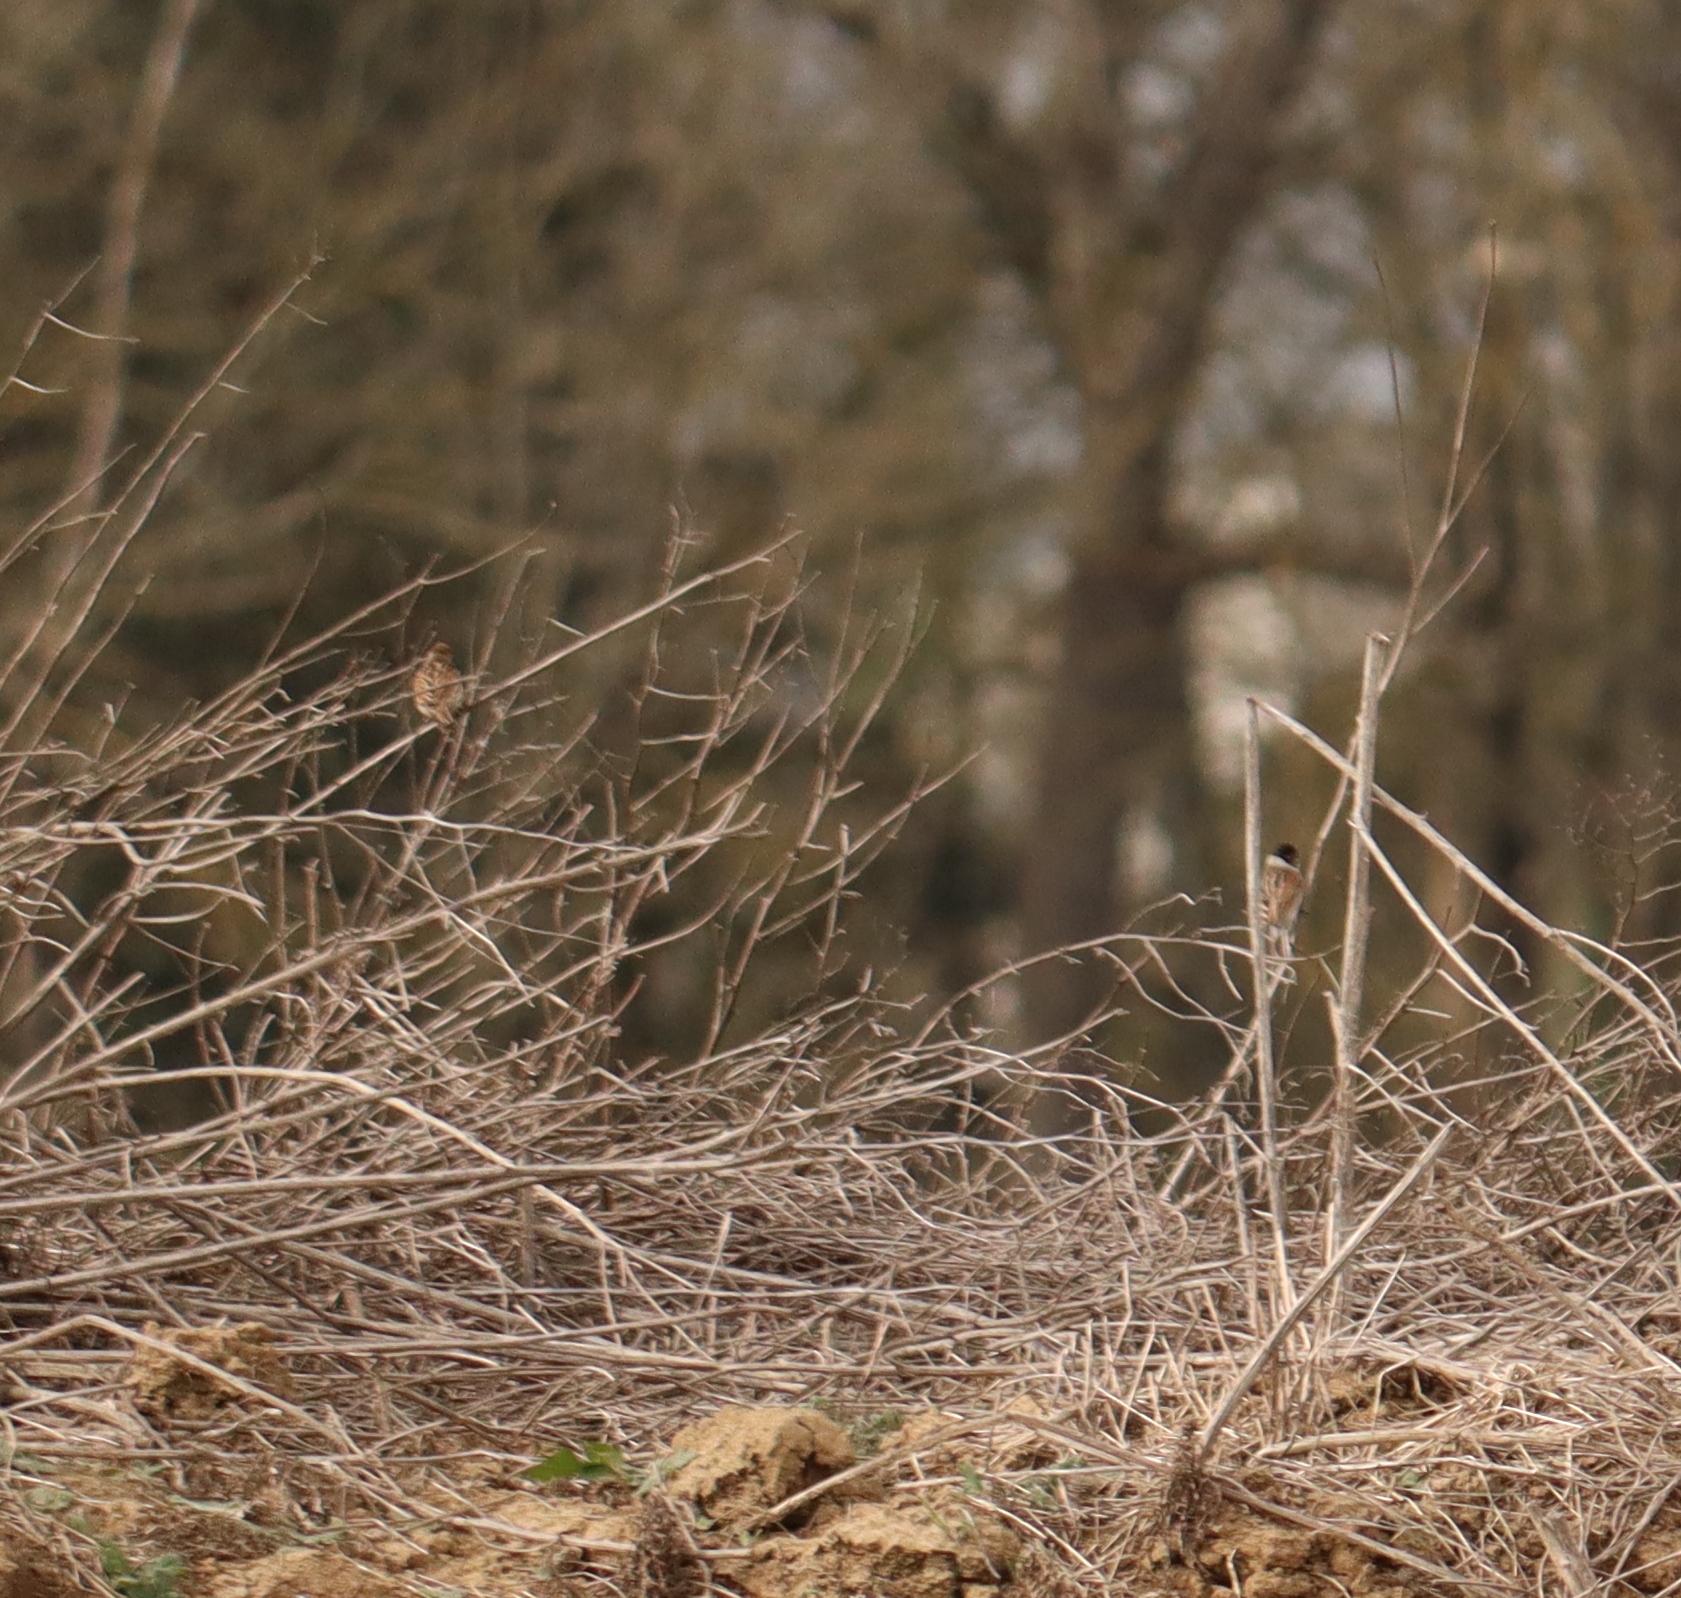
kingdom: Animalia
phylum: Chordata
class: Aves
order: Passeriformes
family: Emberizidae
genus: Emberiza
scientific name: Emberiza schoeniclus
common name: Reed bunting
